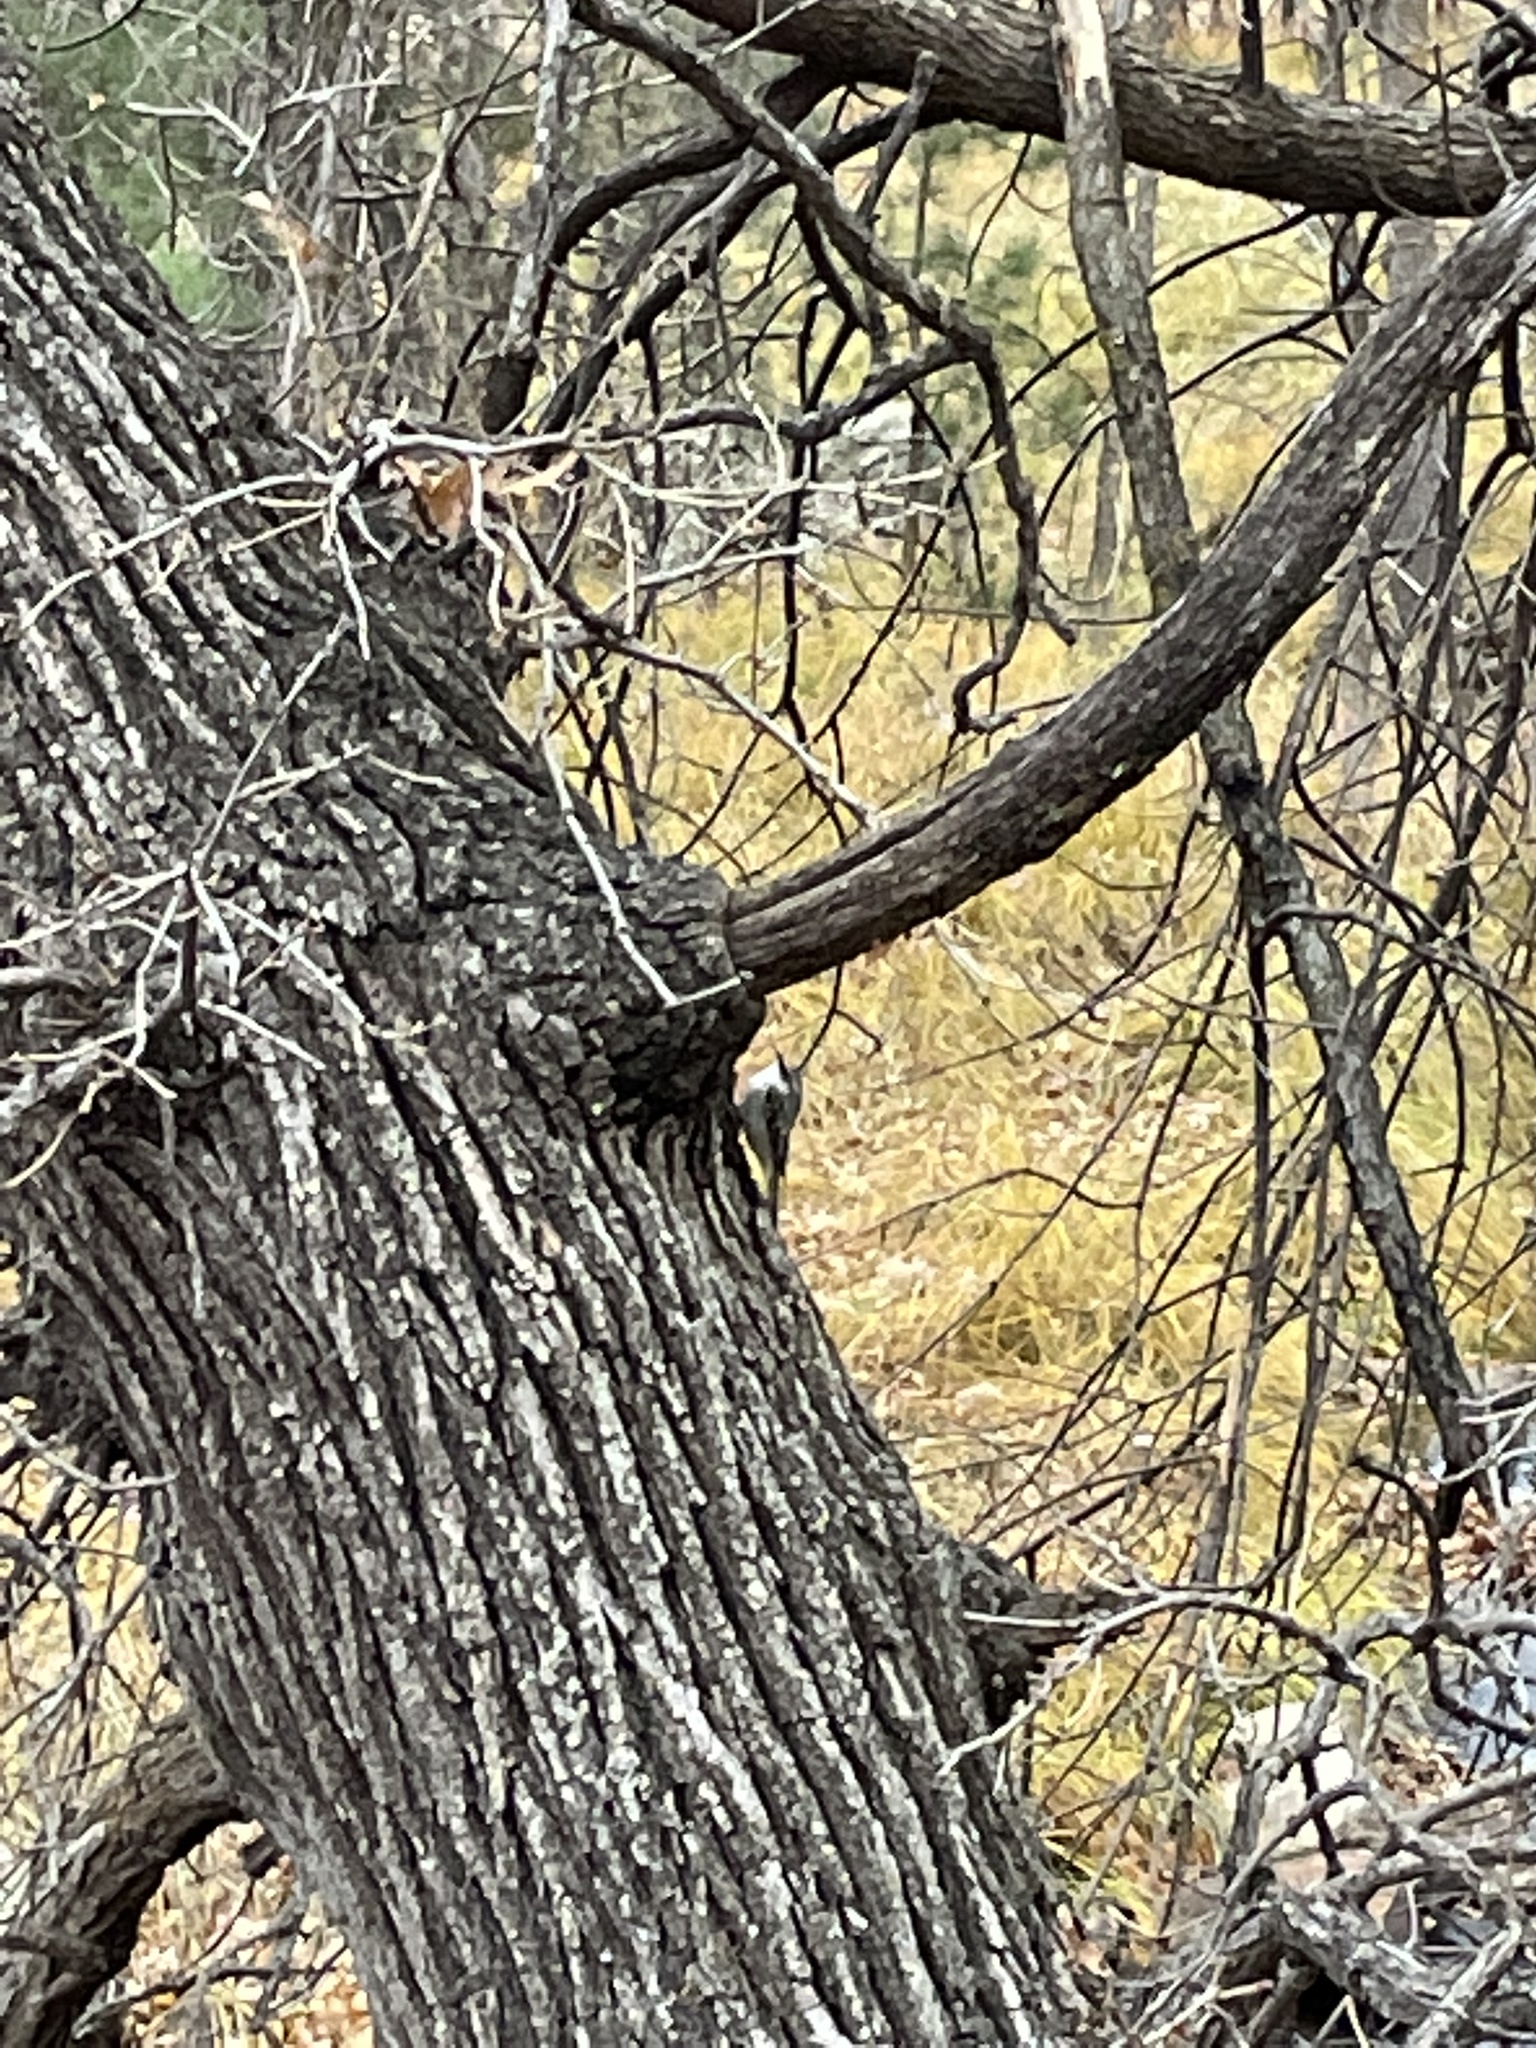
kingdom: Animalia
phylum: Chordata
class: Aves
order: Passeriformes
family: Certhiidae
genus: Certhia
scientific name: Certhia americana
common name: Brown creeper
